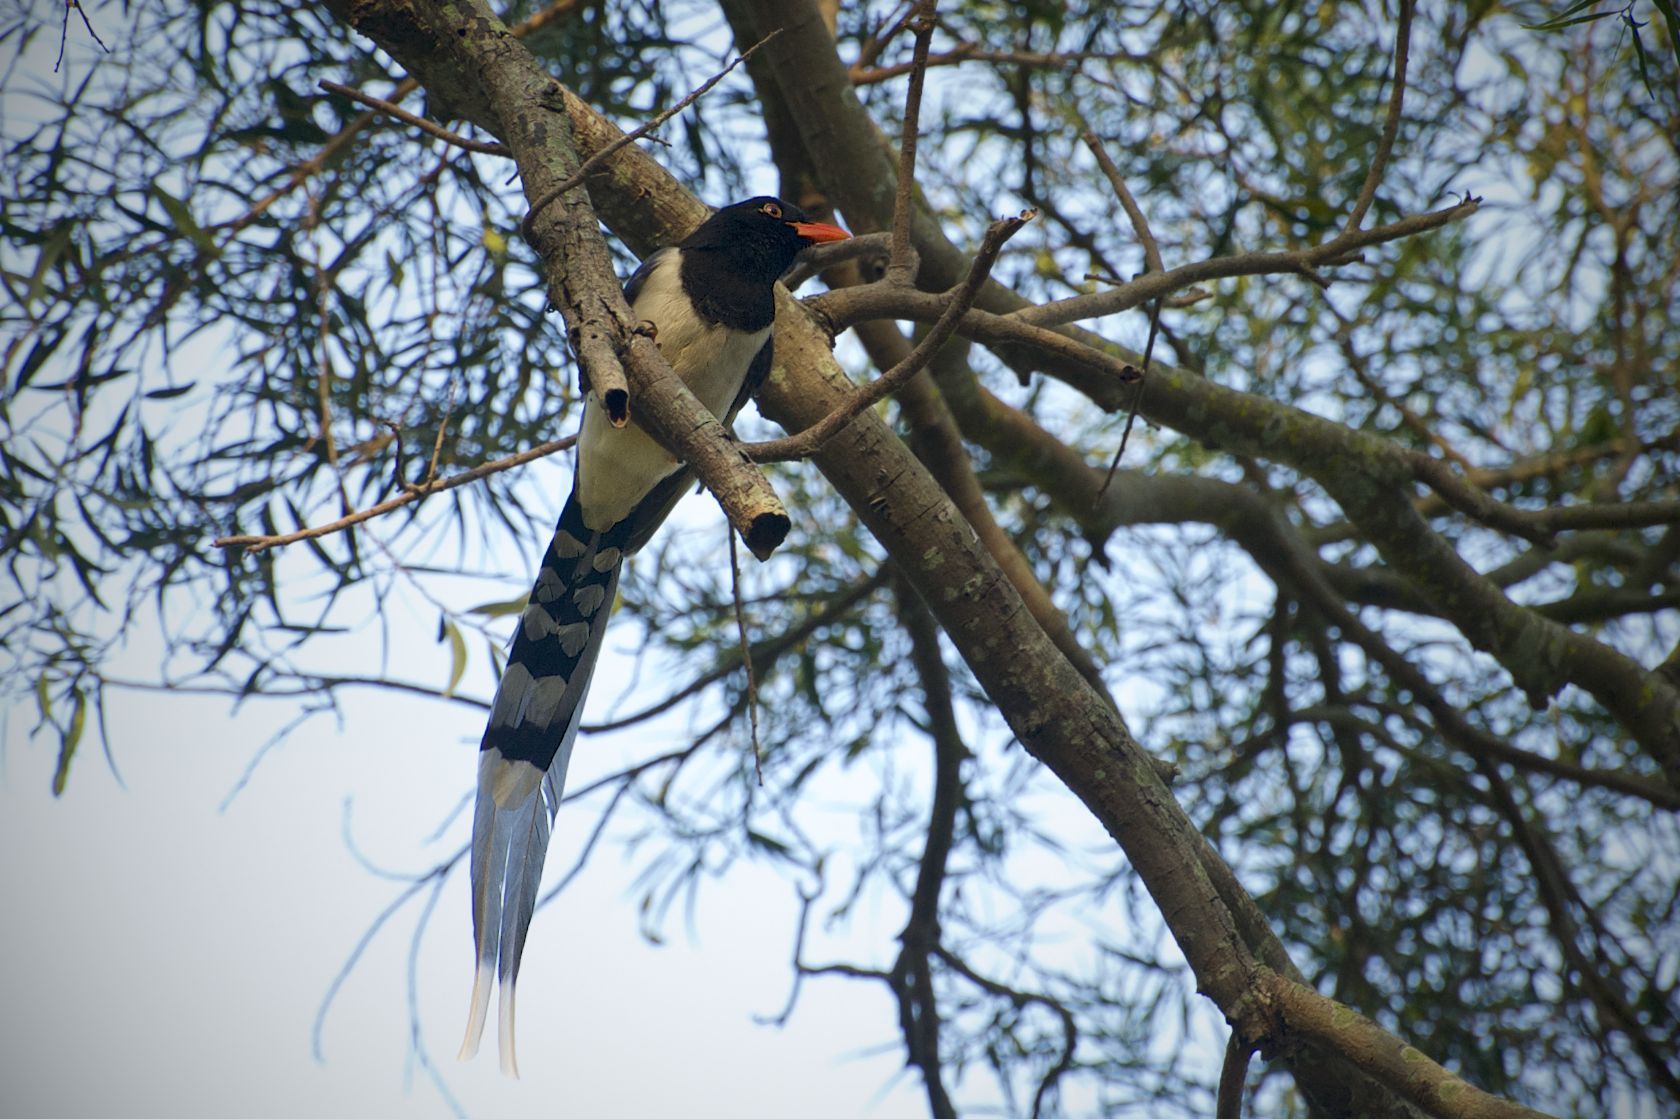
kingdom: Animalia
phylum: Chordata
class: Aves
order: Passeriformes
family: Corvidae
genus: Urocissa
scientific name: Urocissa erythroryncha
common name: Red-billed blue magpie
